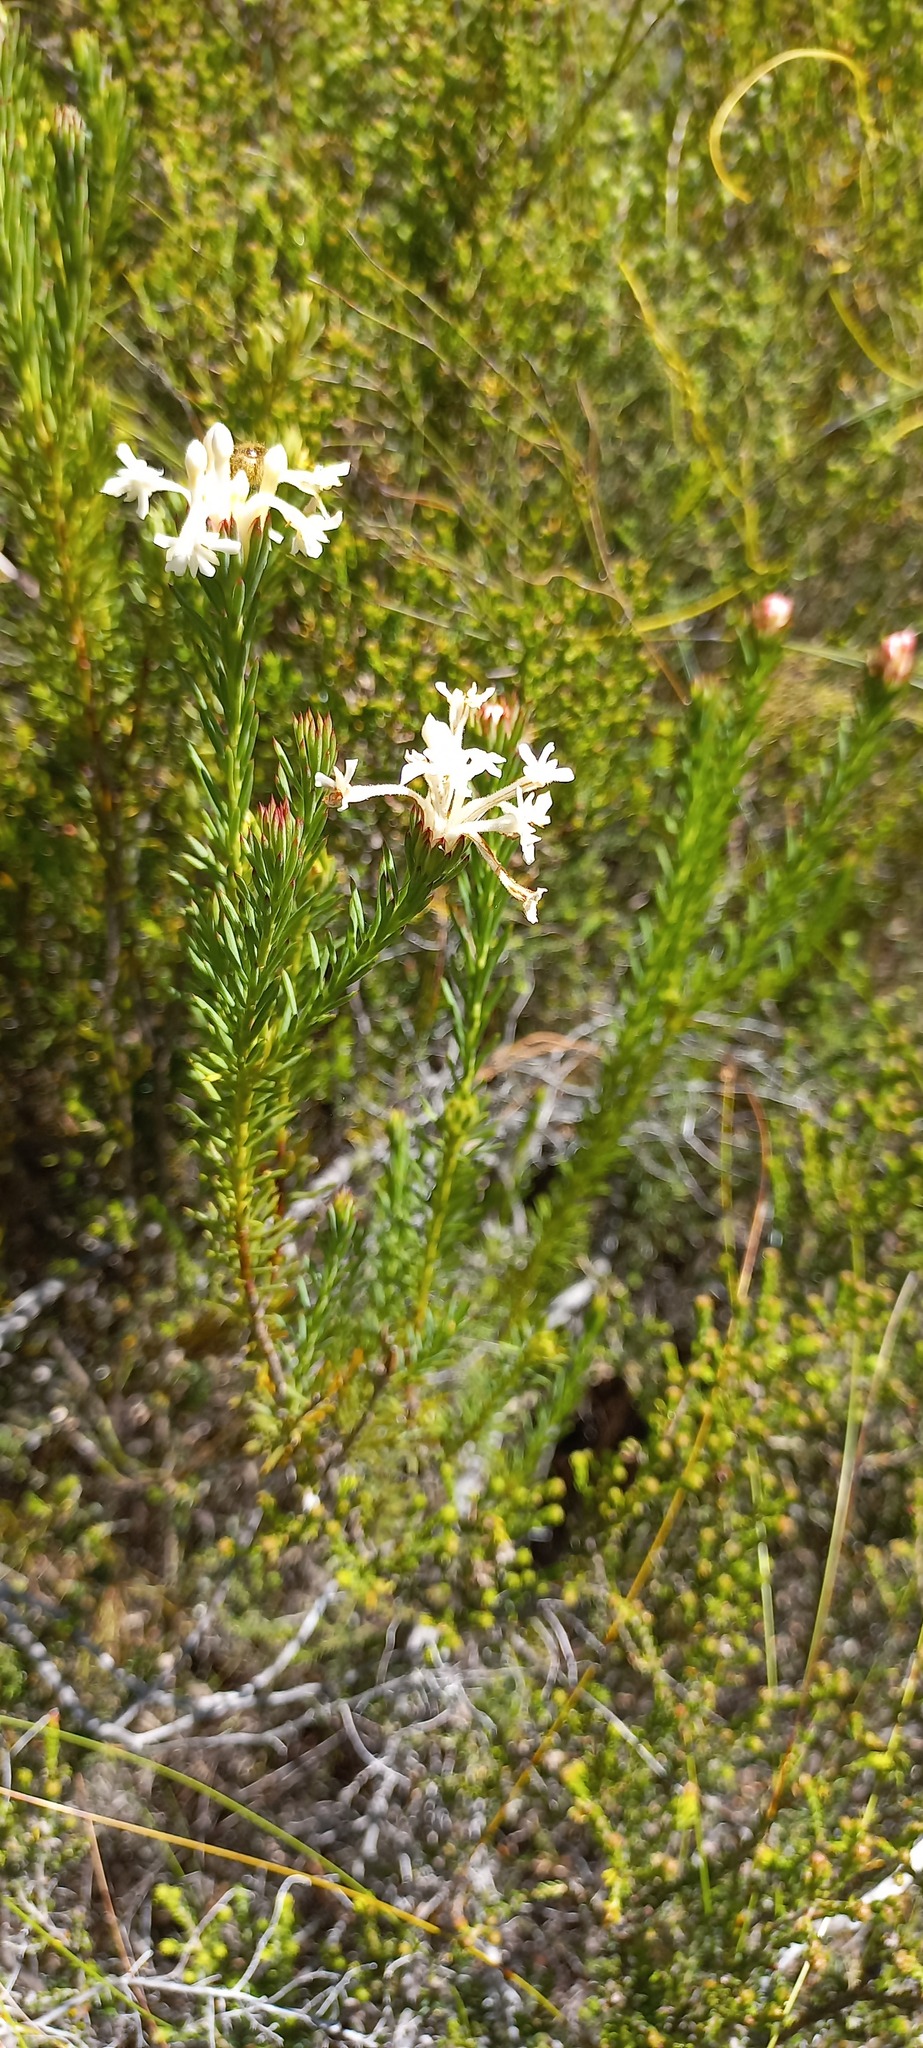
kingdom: Plantae
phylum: Tracheophyta
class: Magnoliopsida
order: Malvales
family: Thymelaeaceae
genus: Gnidia
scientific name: Gnidia pinifolia
